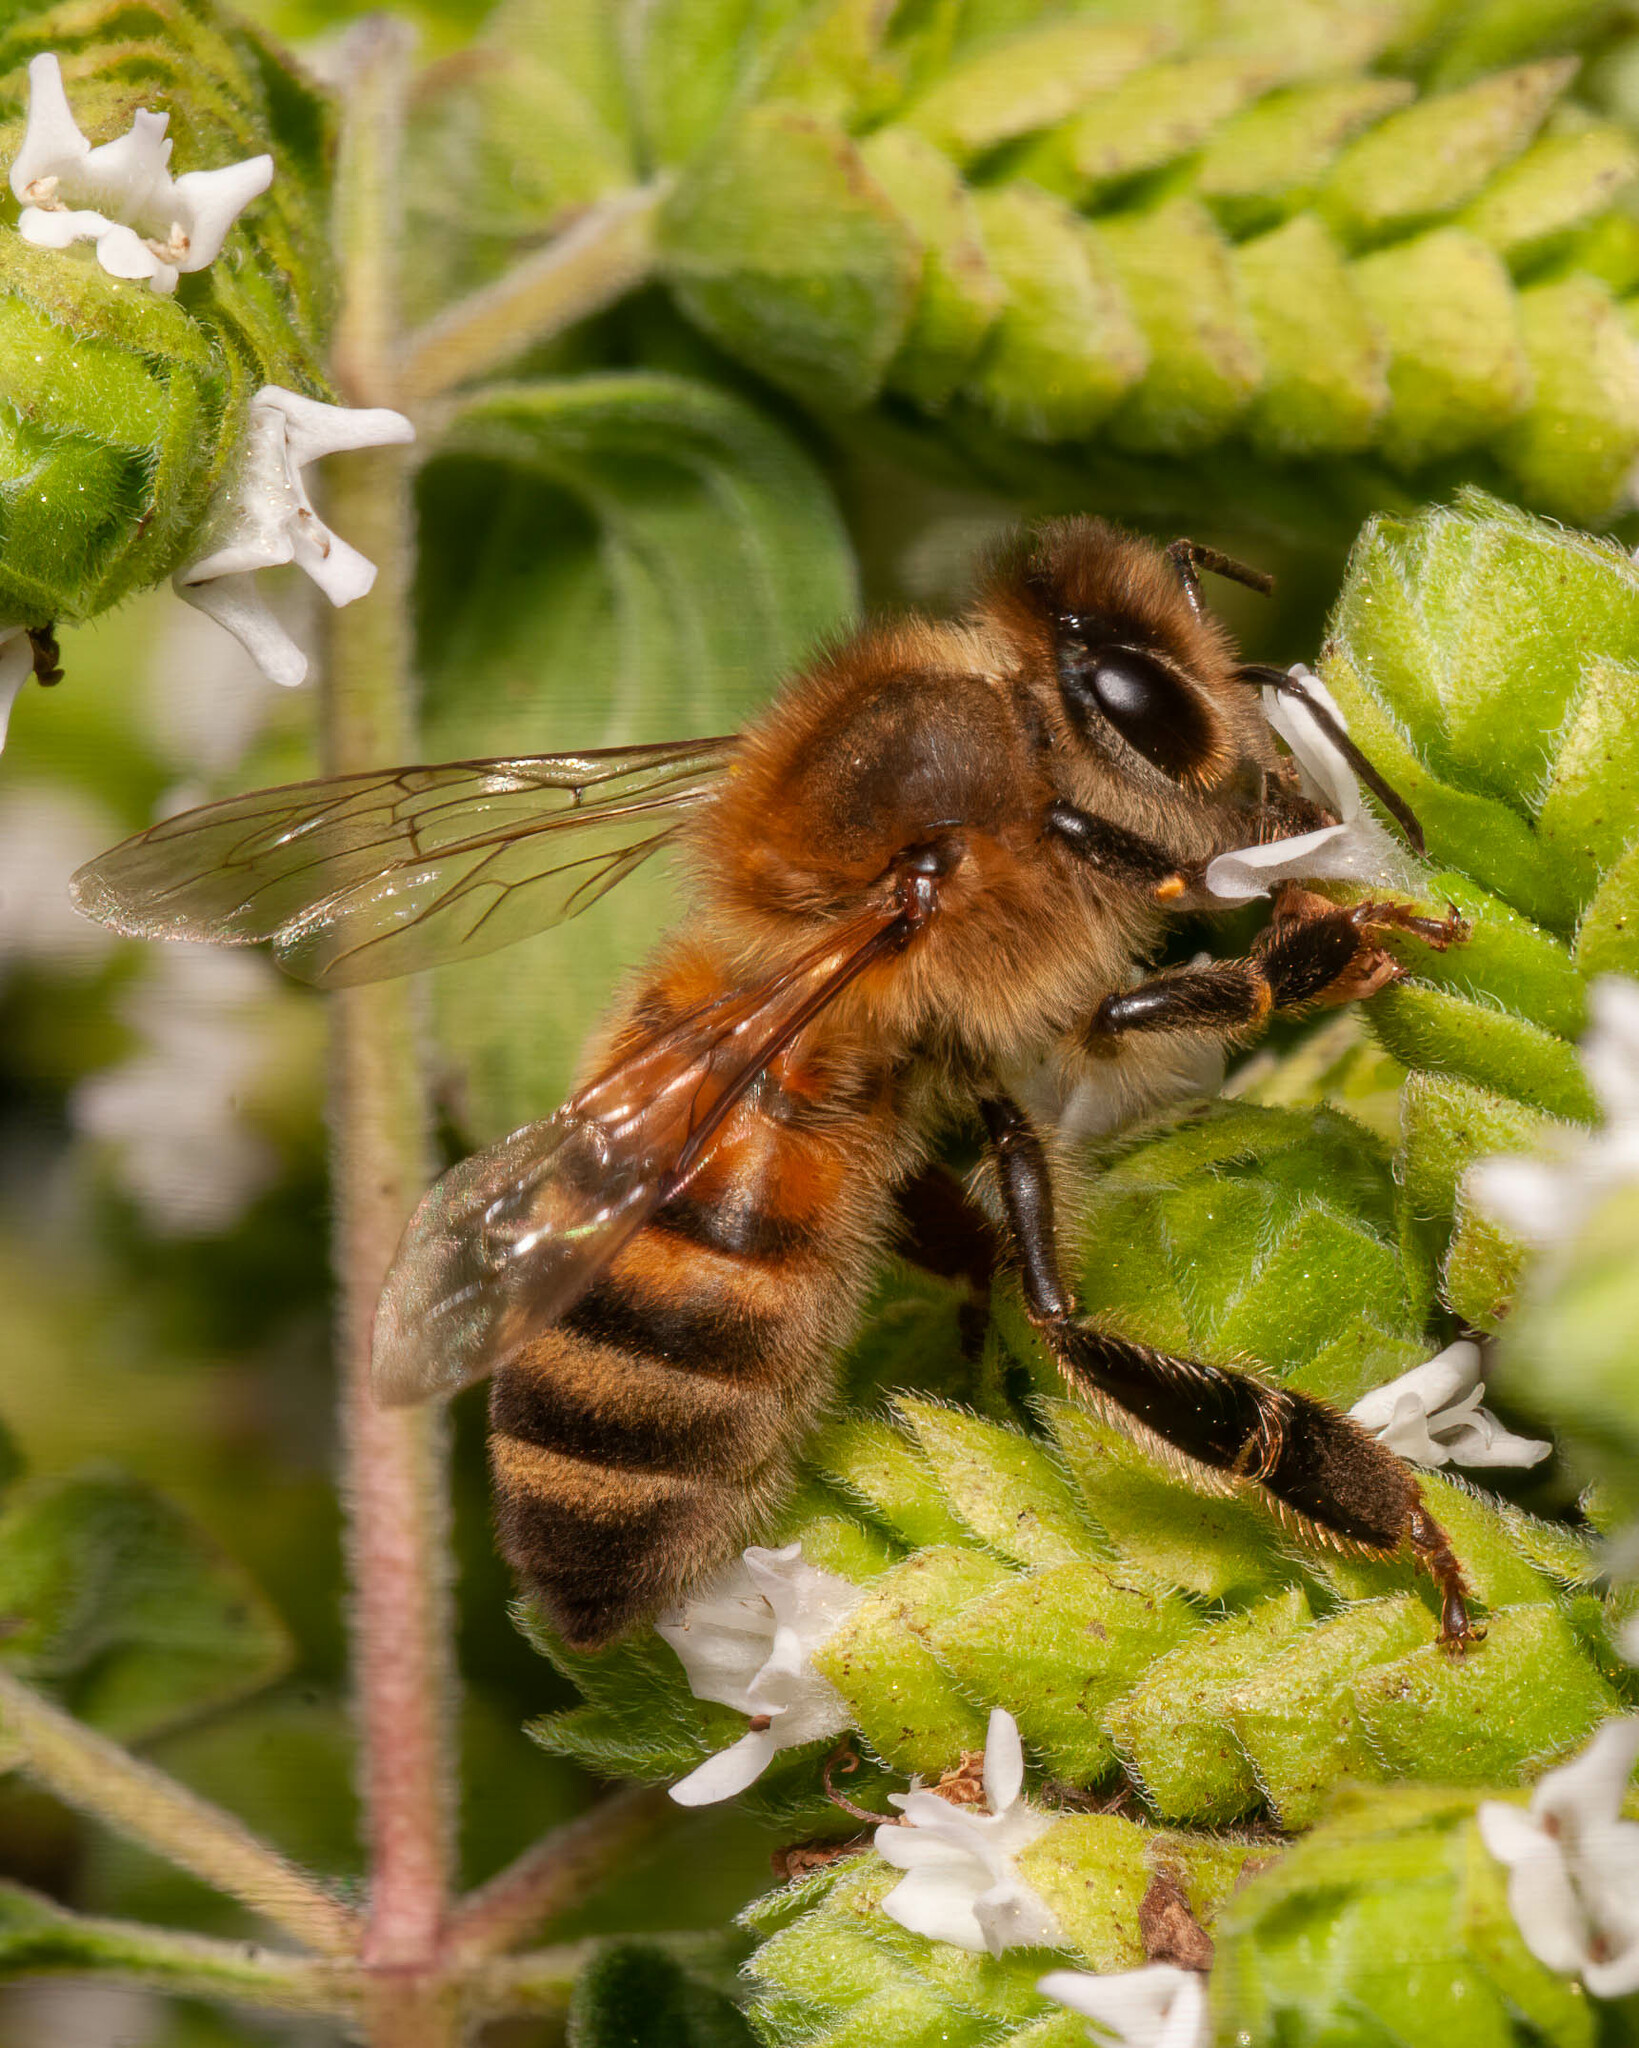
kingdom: Animalia
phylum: Arthropoda
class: Insecta
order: Hymenoptera
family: Apidae
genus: Apis
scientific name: Apis mellifera
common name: Honey bee
